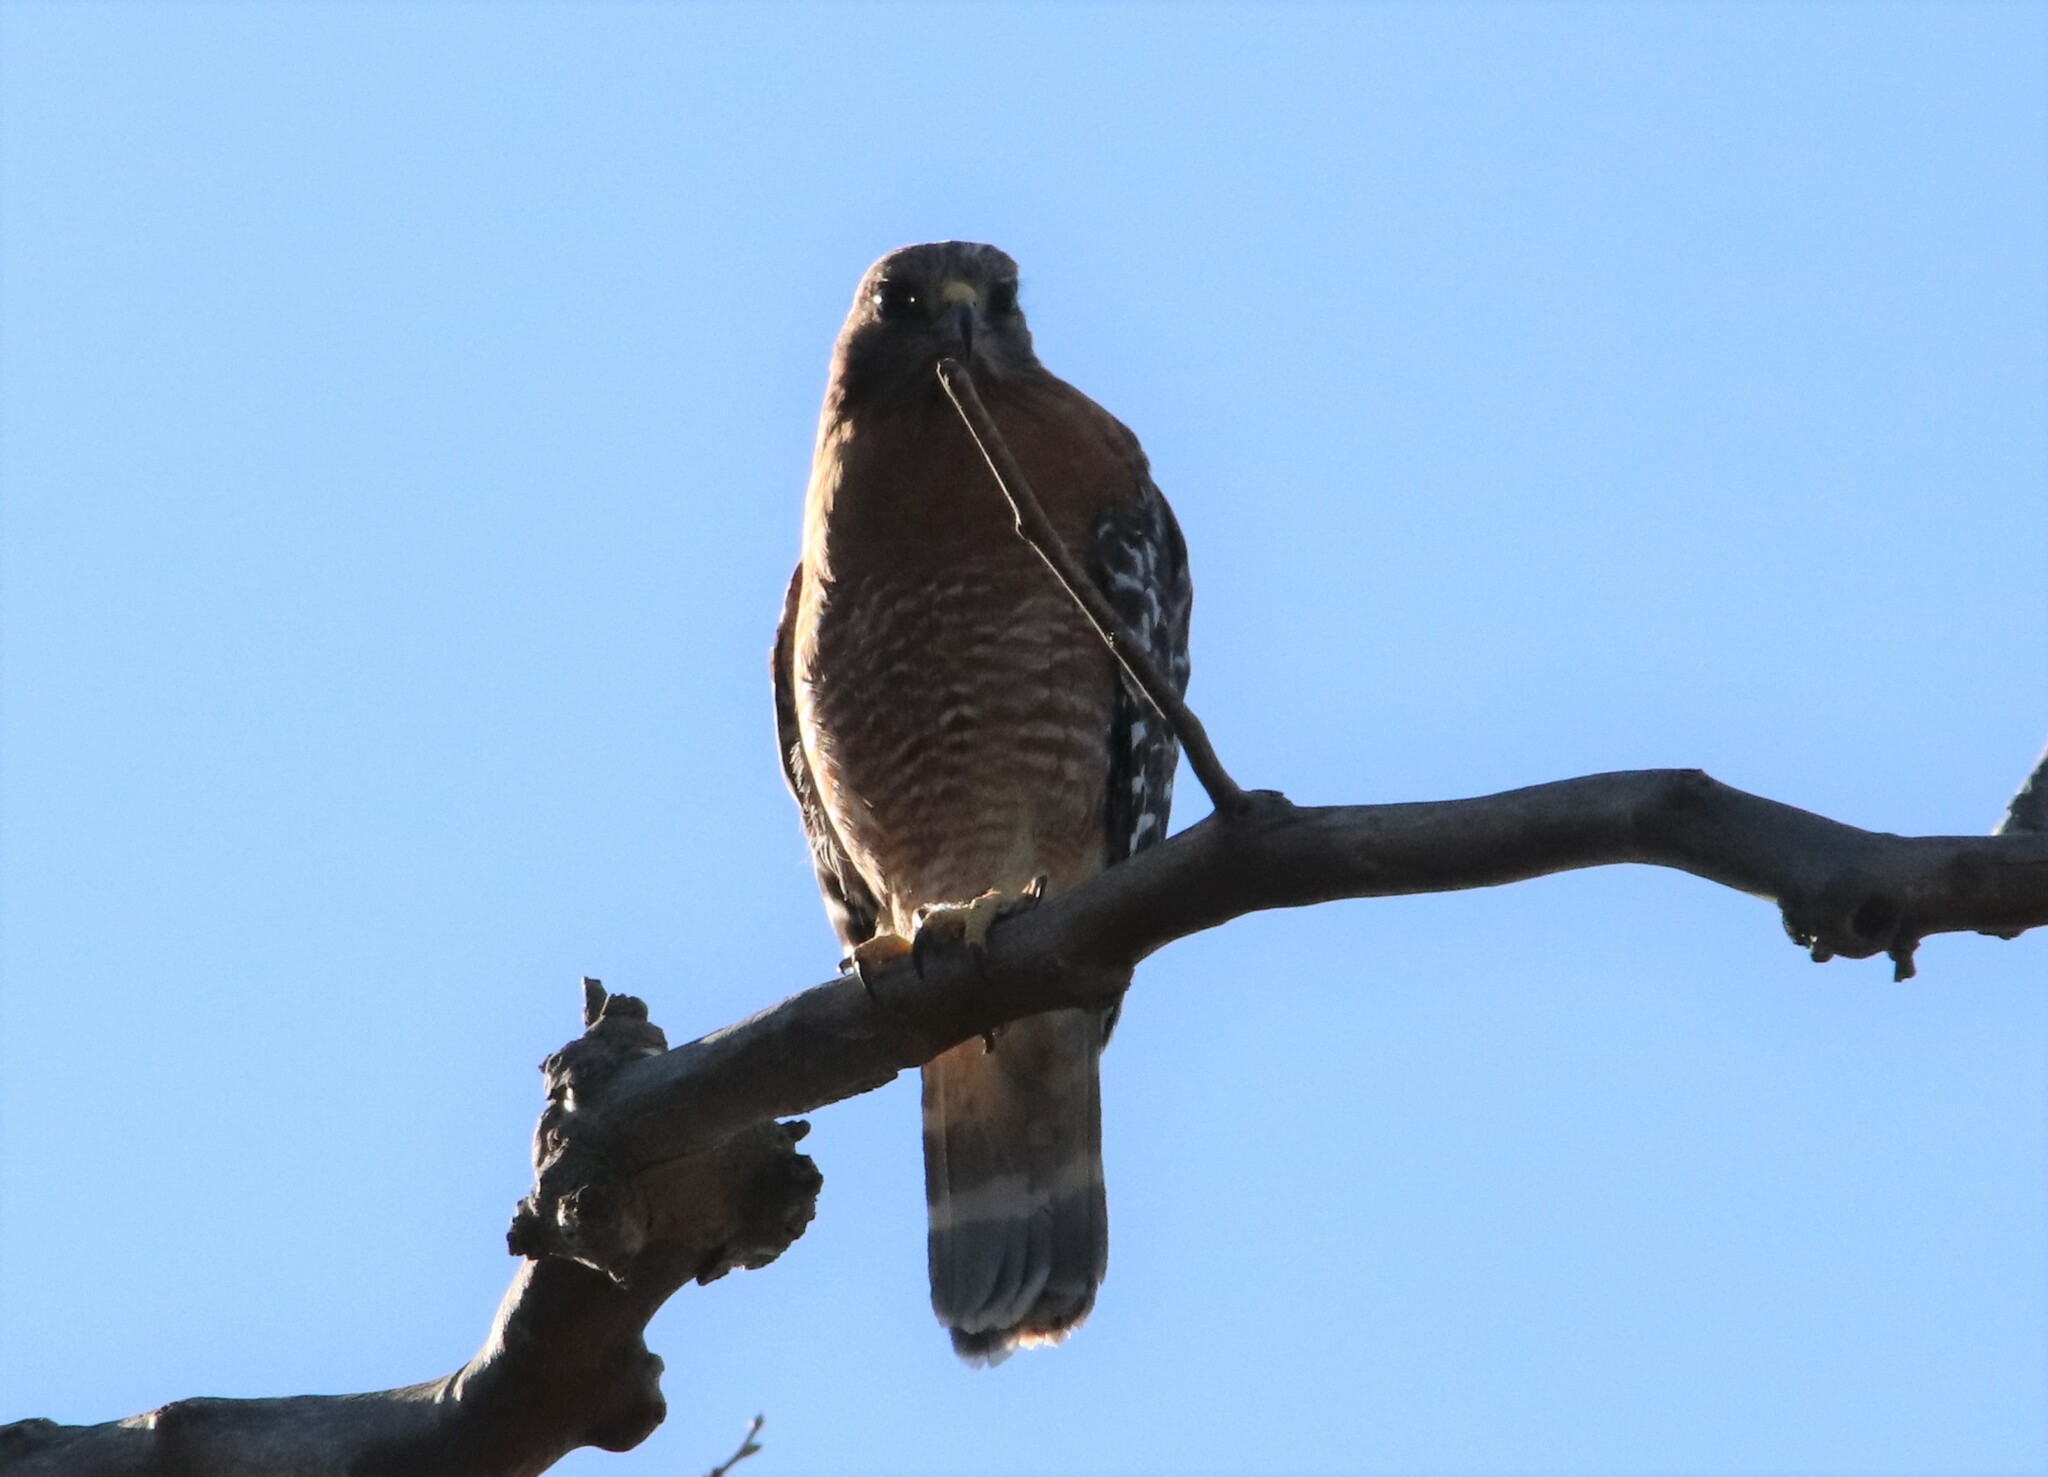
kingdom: Animalia
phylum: Chordata
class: Aves
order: Accipitriformes
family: Accipitridae
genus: Buteo
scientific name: Buteo lineatus
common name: Red-shouldered hawk
